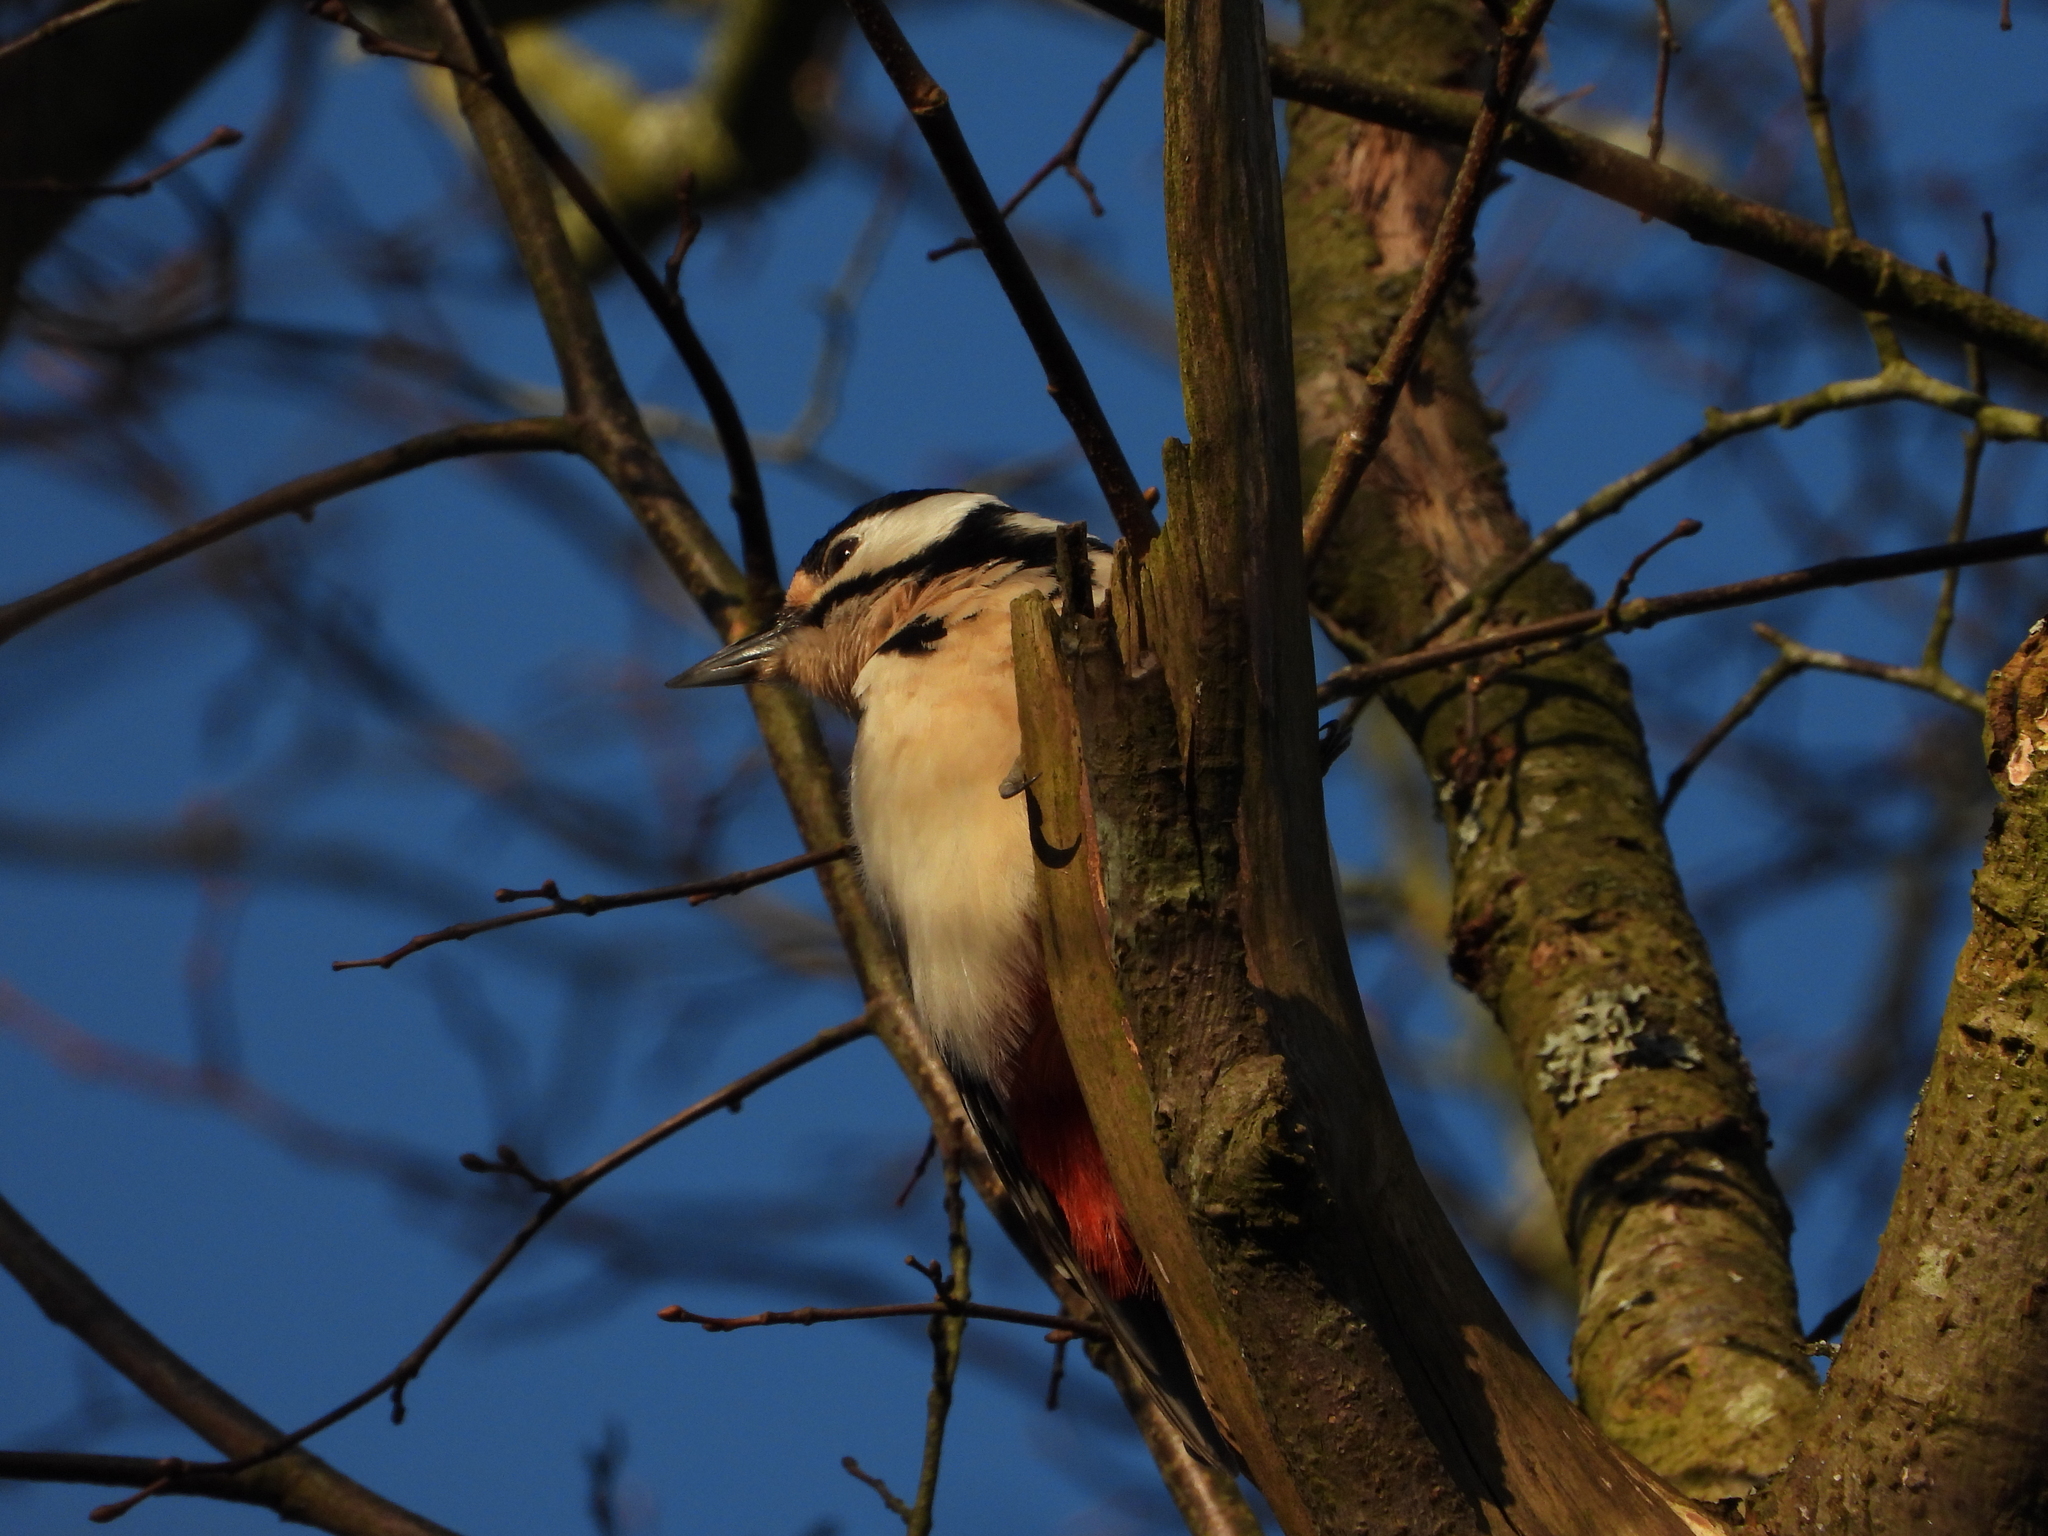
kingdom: Animalia
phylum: Chordata
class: Aves
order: Piciformes
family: Picidae
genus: Dendrocopos
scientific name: Dendrocopos major
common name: Great spotted woodpecker
